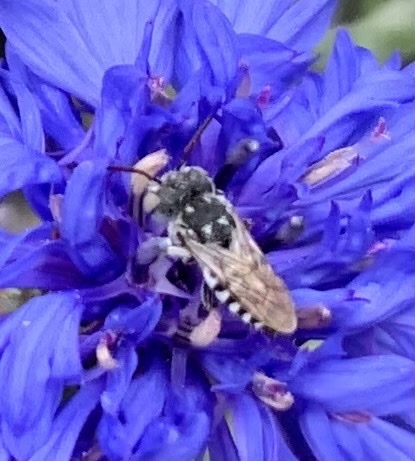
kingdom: Animalia
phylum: Arthropoda
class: Insecta
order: Hymenoptera
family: Megachilidae
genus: Coelioxys
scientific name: Coelioxys coturnix
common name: Red-tailed cuckoo-leaf-cutter bee
